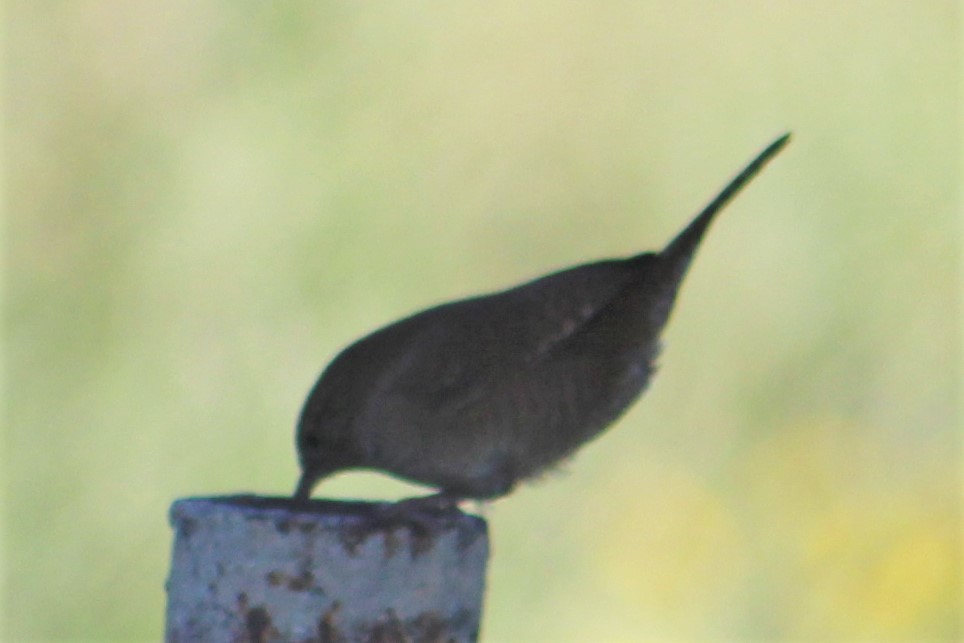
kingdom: Animalia
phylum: Chordata
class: Aves
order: Passeriformes
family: Troglodytidae
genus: Troglodytes
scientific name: Troglodytes aedon
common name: House wren
